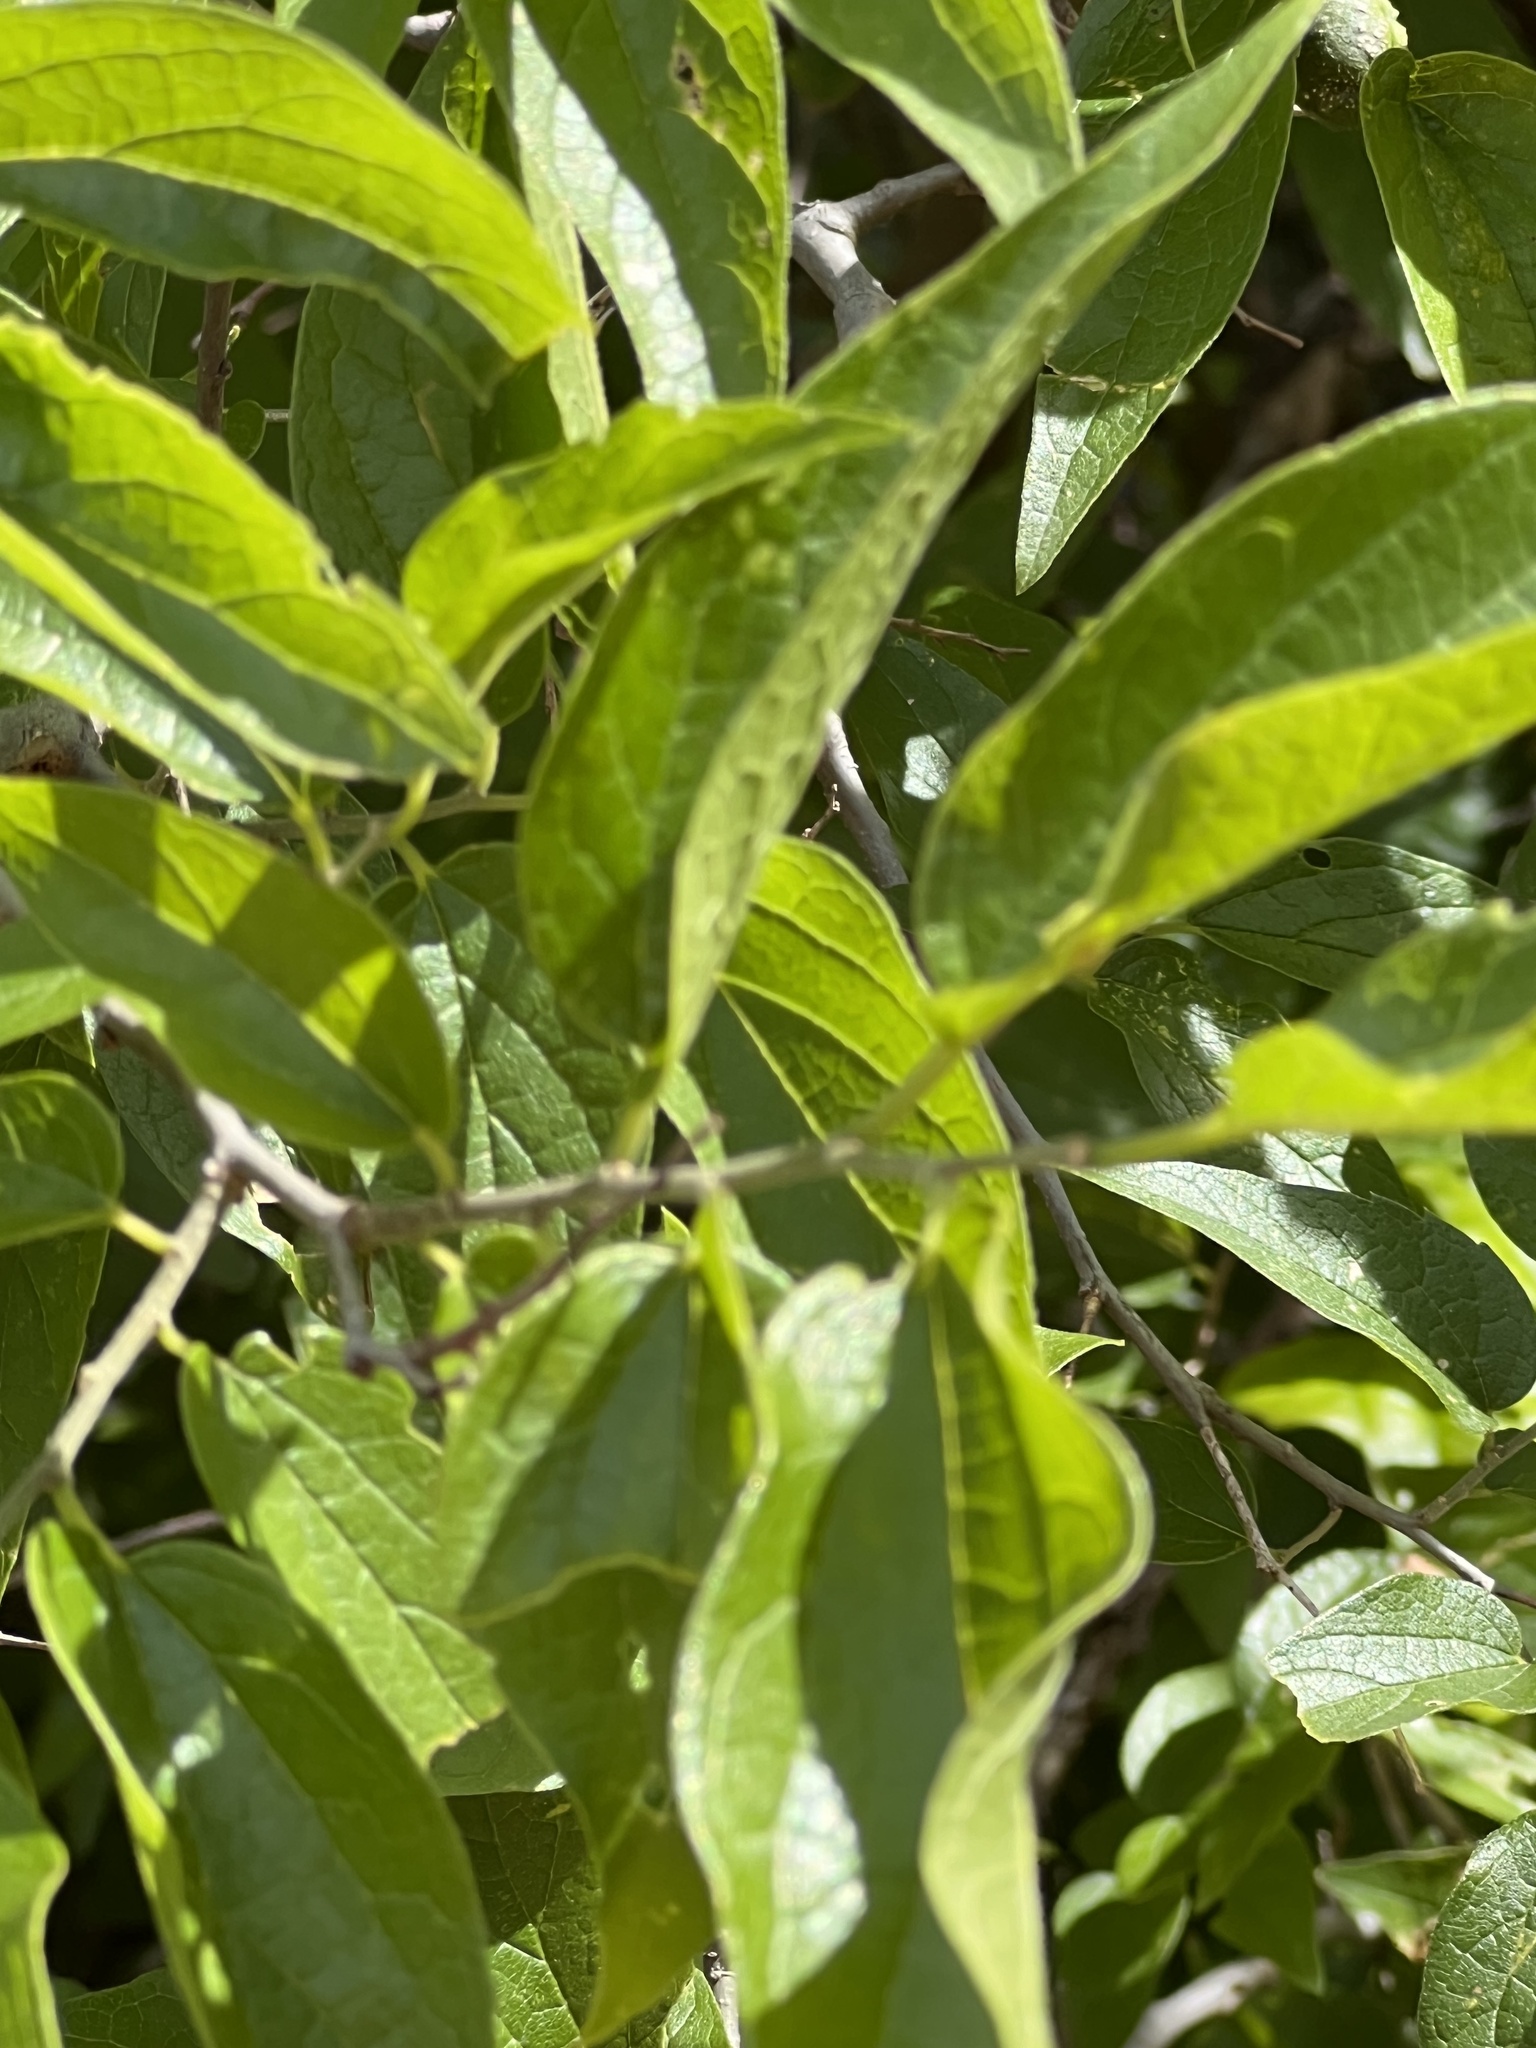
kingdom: Plantae
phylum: Tracheophyta
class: Magnoliopsida
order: Rosales
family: Cannabaceae
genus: Celtis
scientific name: Celtis laevigata
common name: Sugarberry
